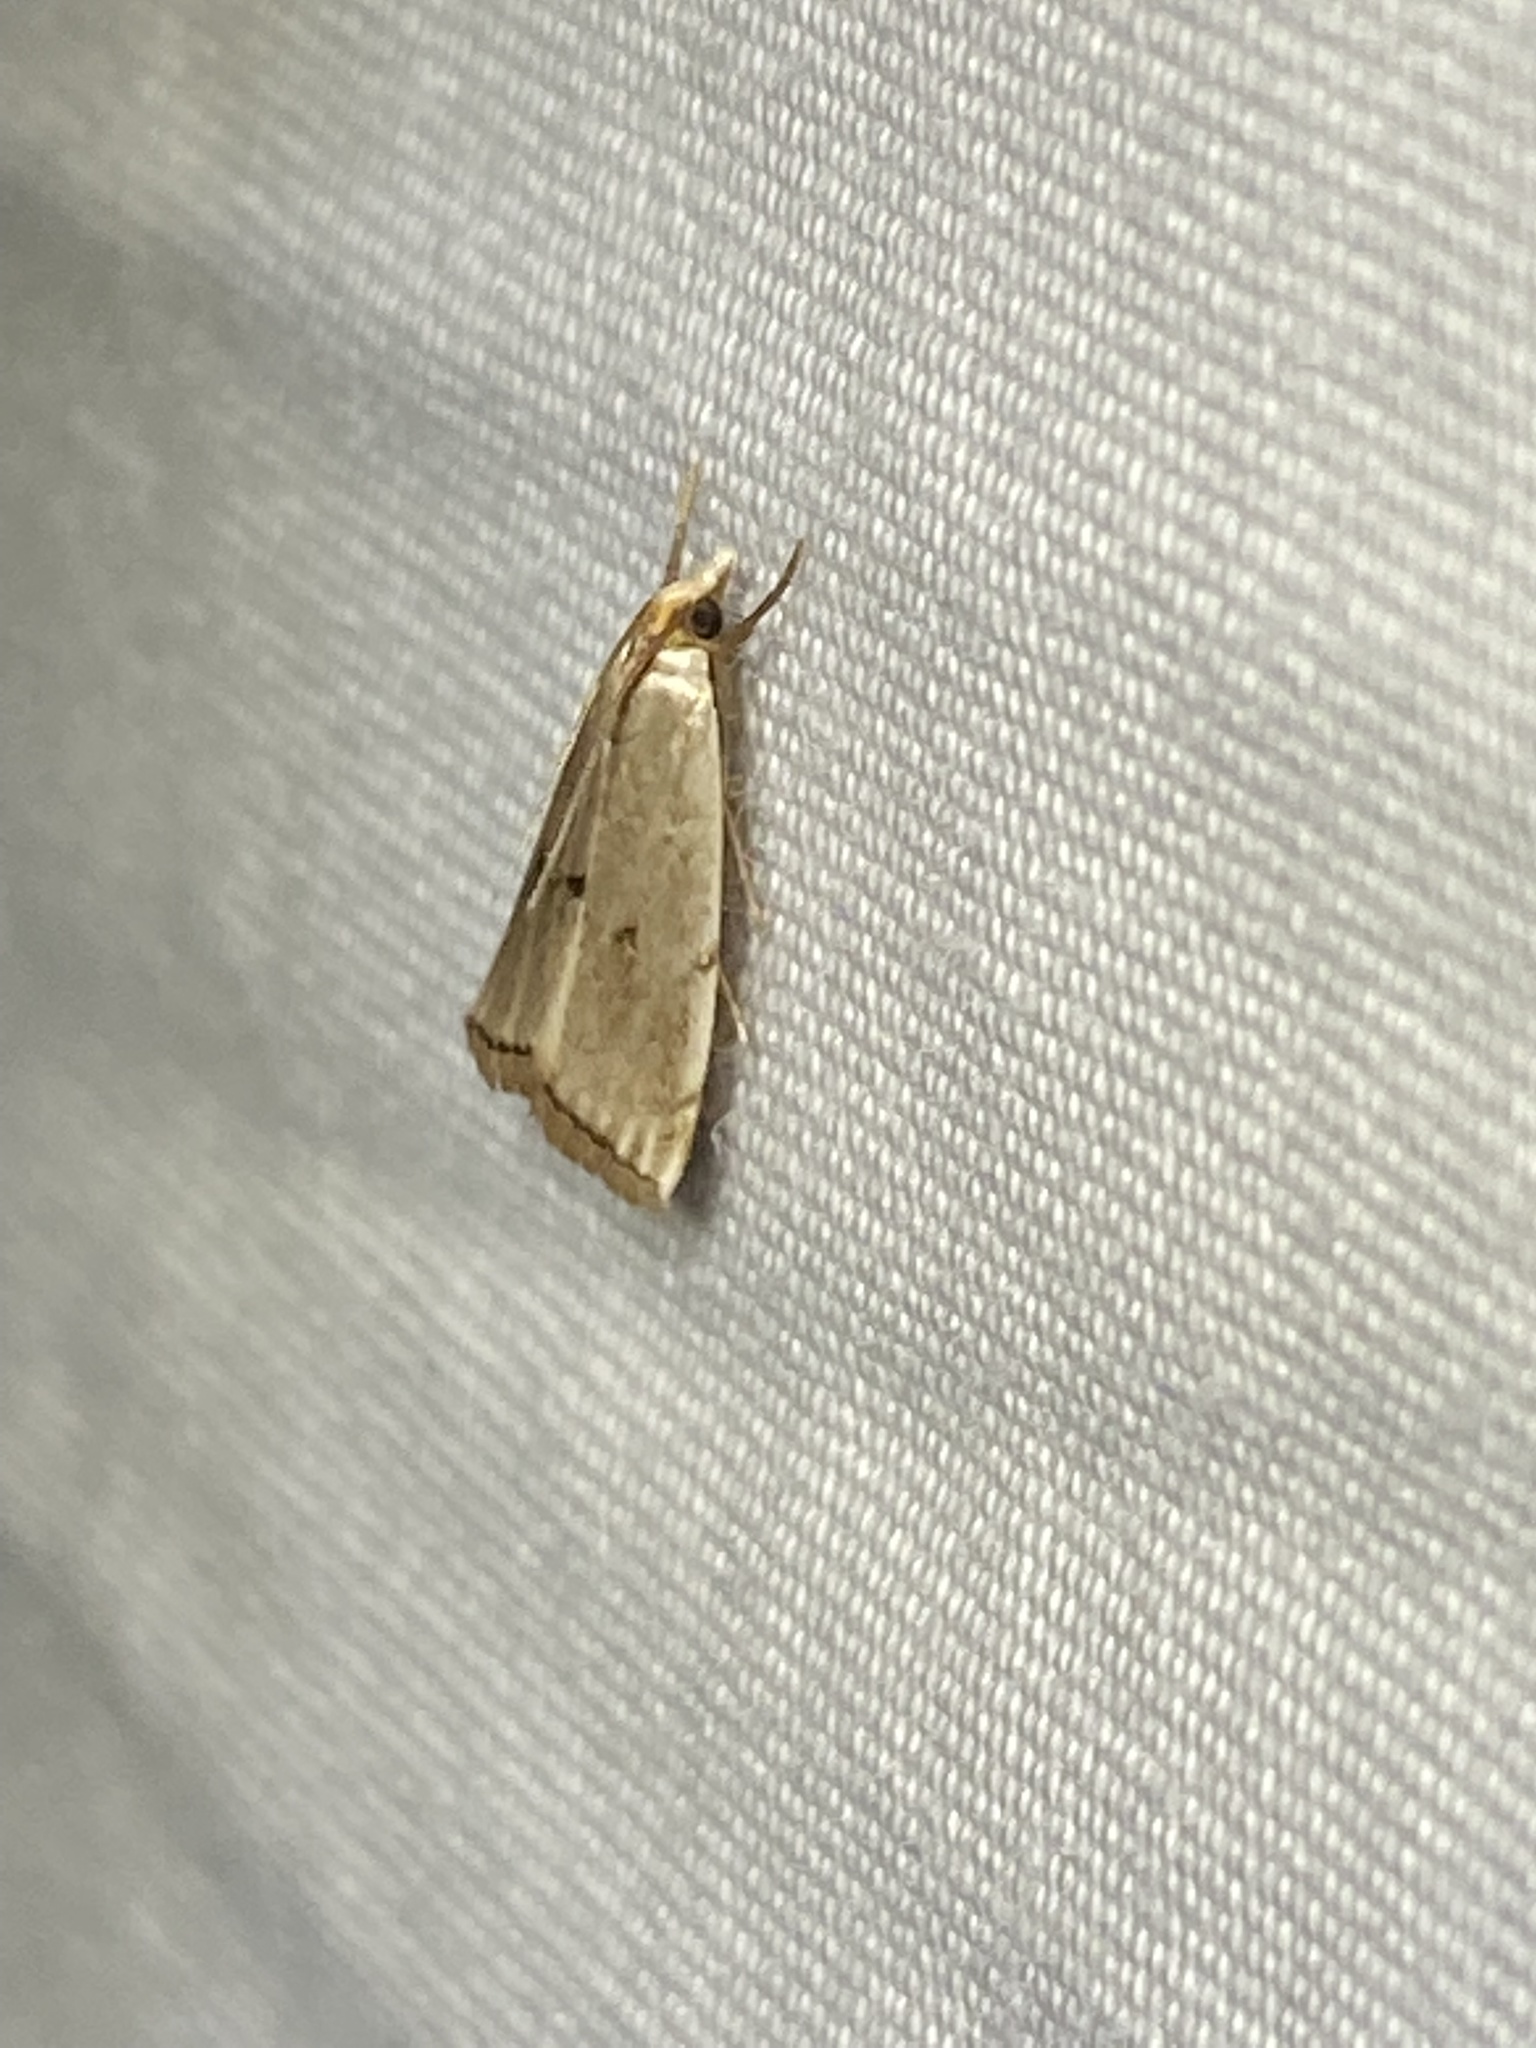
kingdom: Animalia
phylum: Arthropoda
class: Insecta
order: Lepidoptera
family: Crambidae
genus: Argyria
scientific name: Argyria pusillalis
